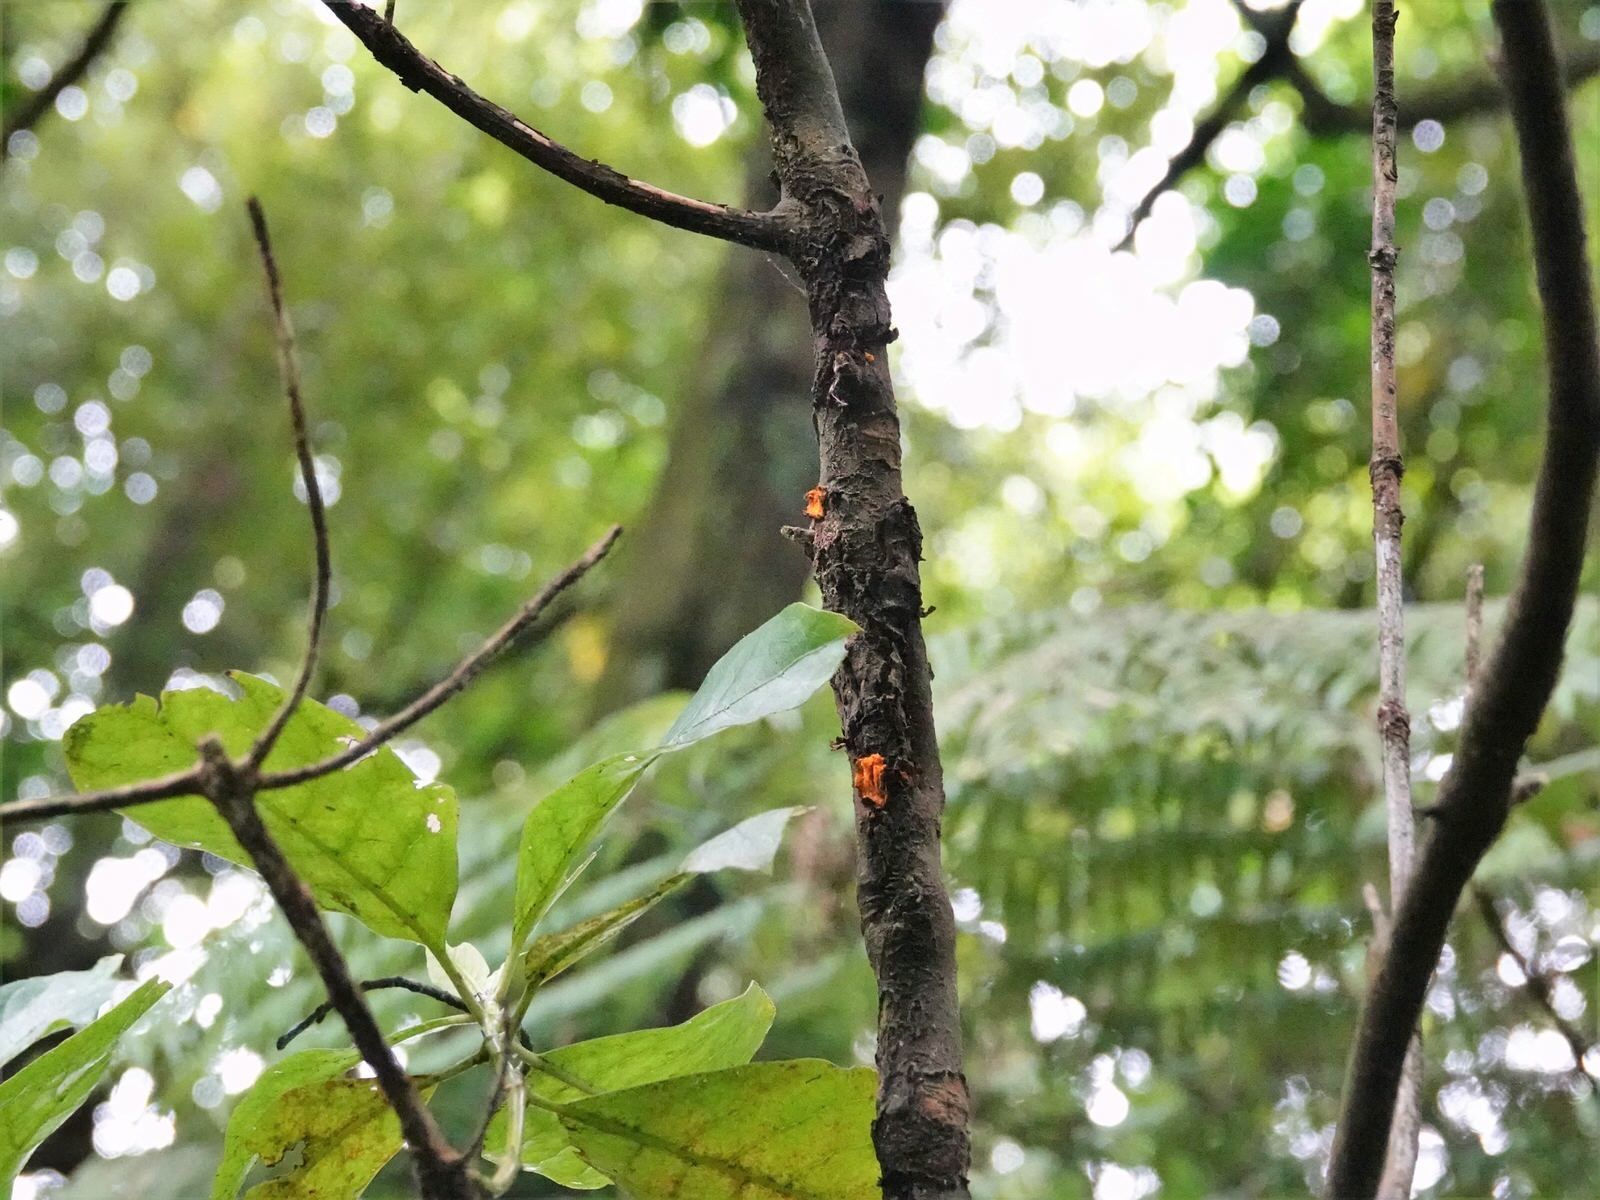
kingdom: Plantae
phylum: Tracheophyta
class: Magnoliopsida
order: Gentianales
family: Rubiaceae
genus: Coprosma
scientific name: Coprosma autumnalis
